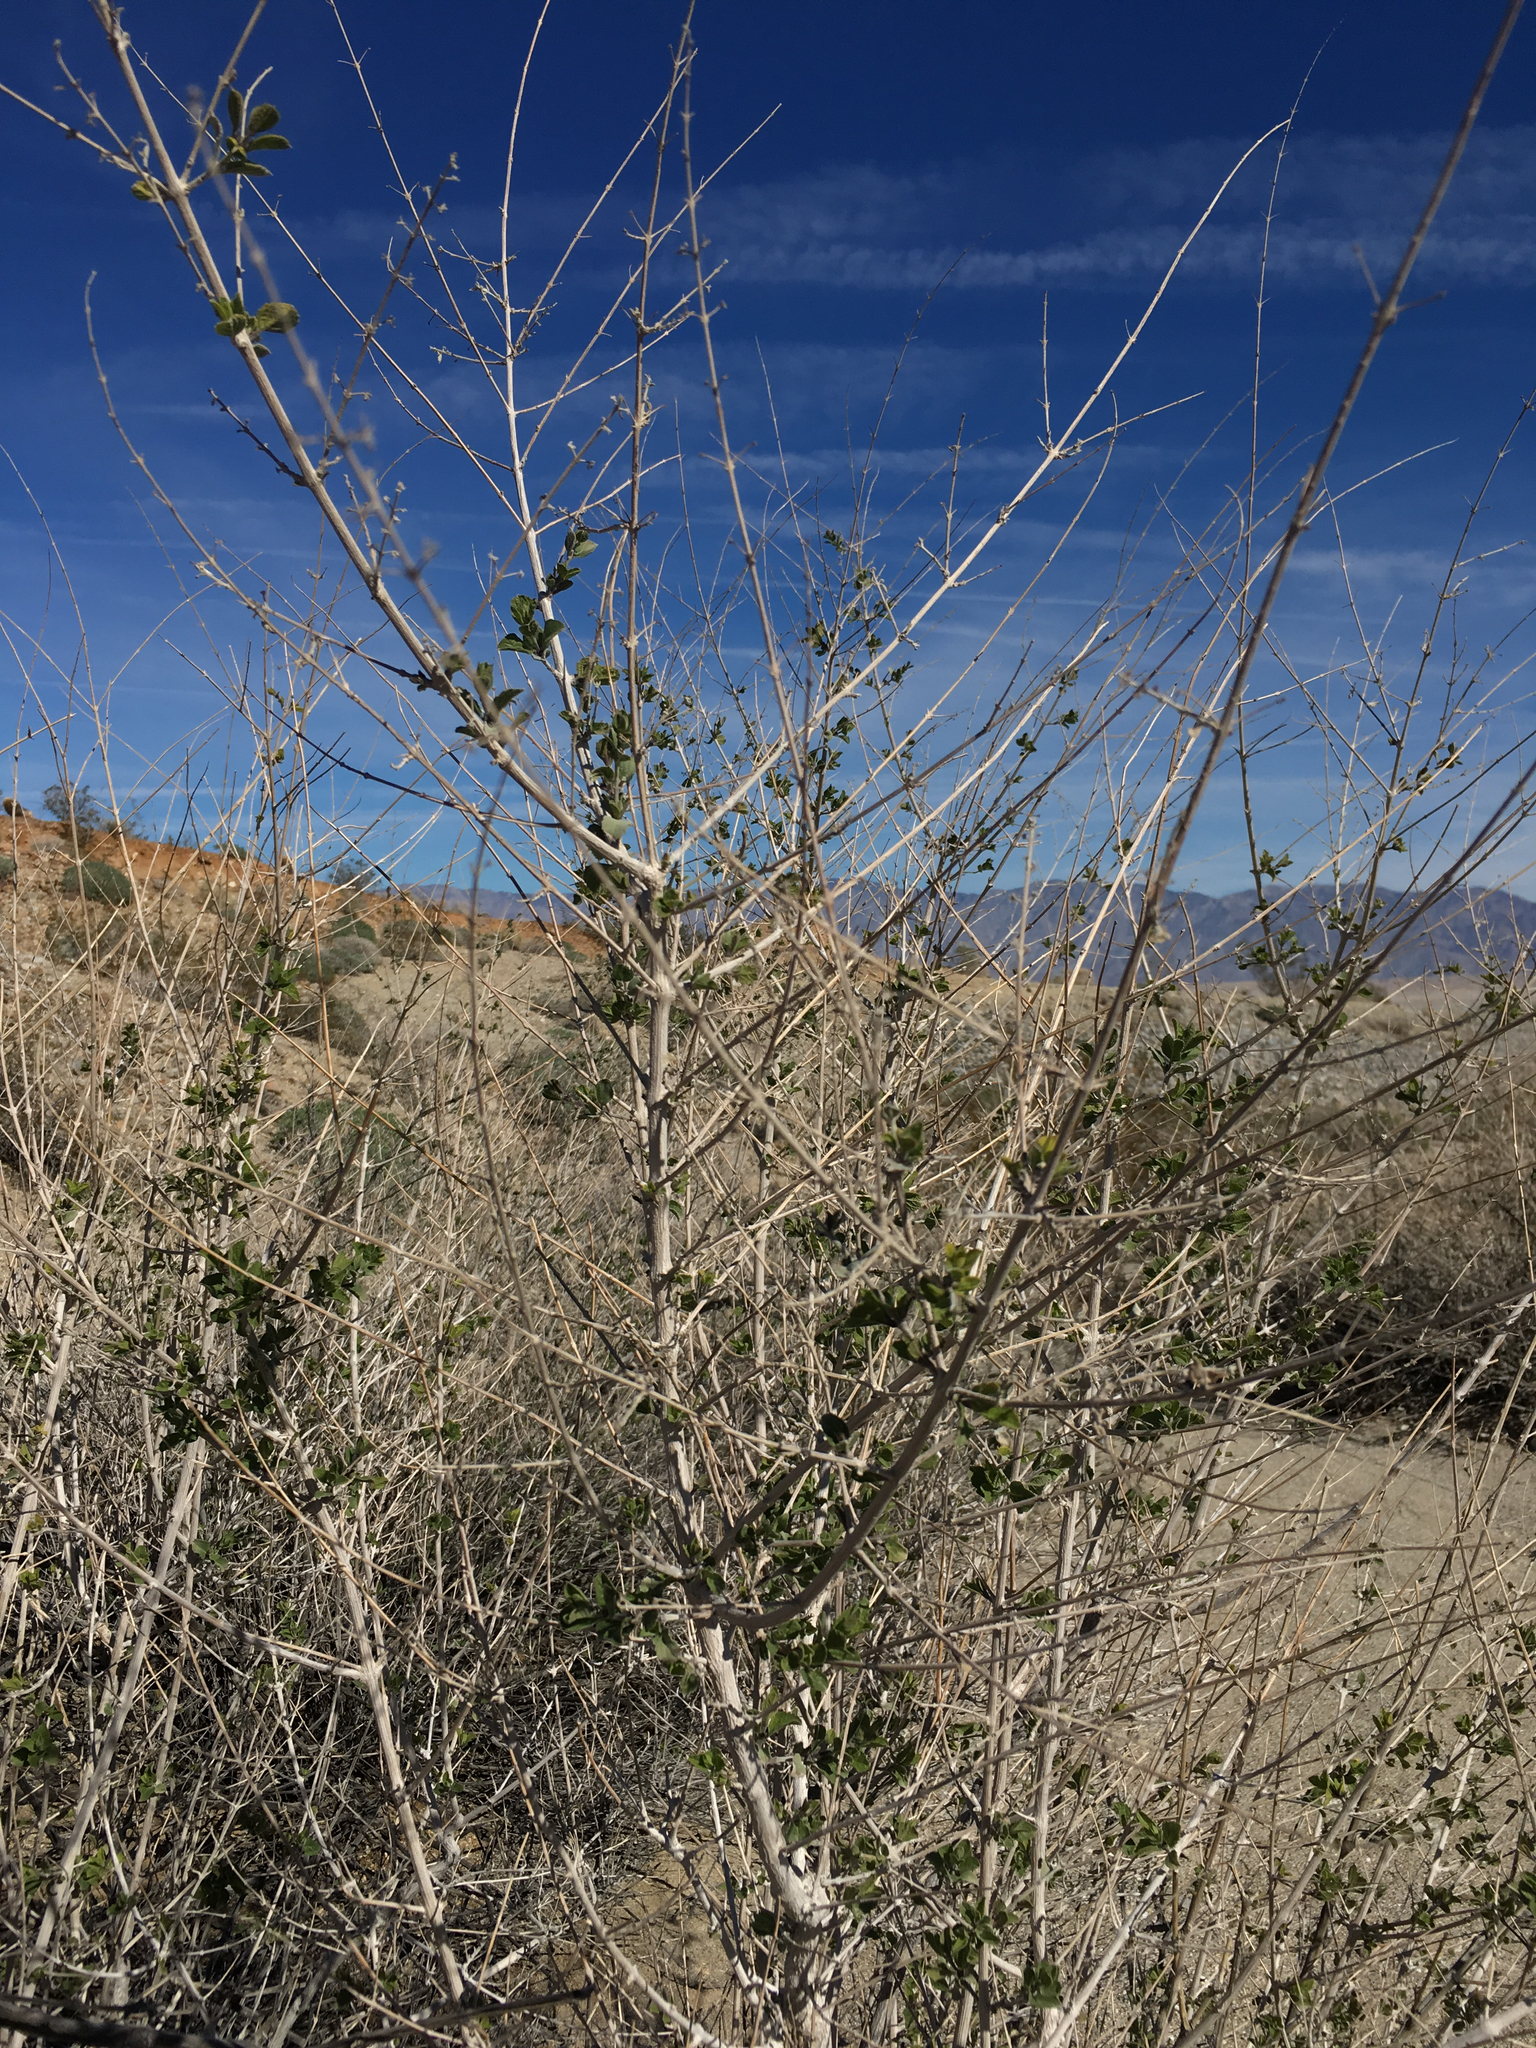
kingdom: Plantae
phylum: Tracheophyta
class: Magnoliopsida
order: Lamiales
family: Lamiaceae
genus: Condea
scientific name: Condea emoryi
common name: Chia
